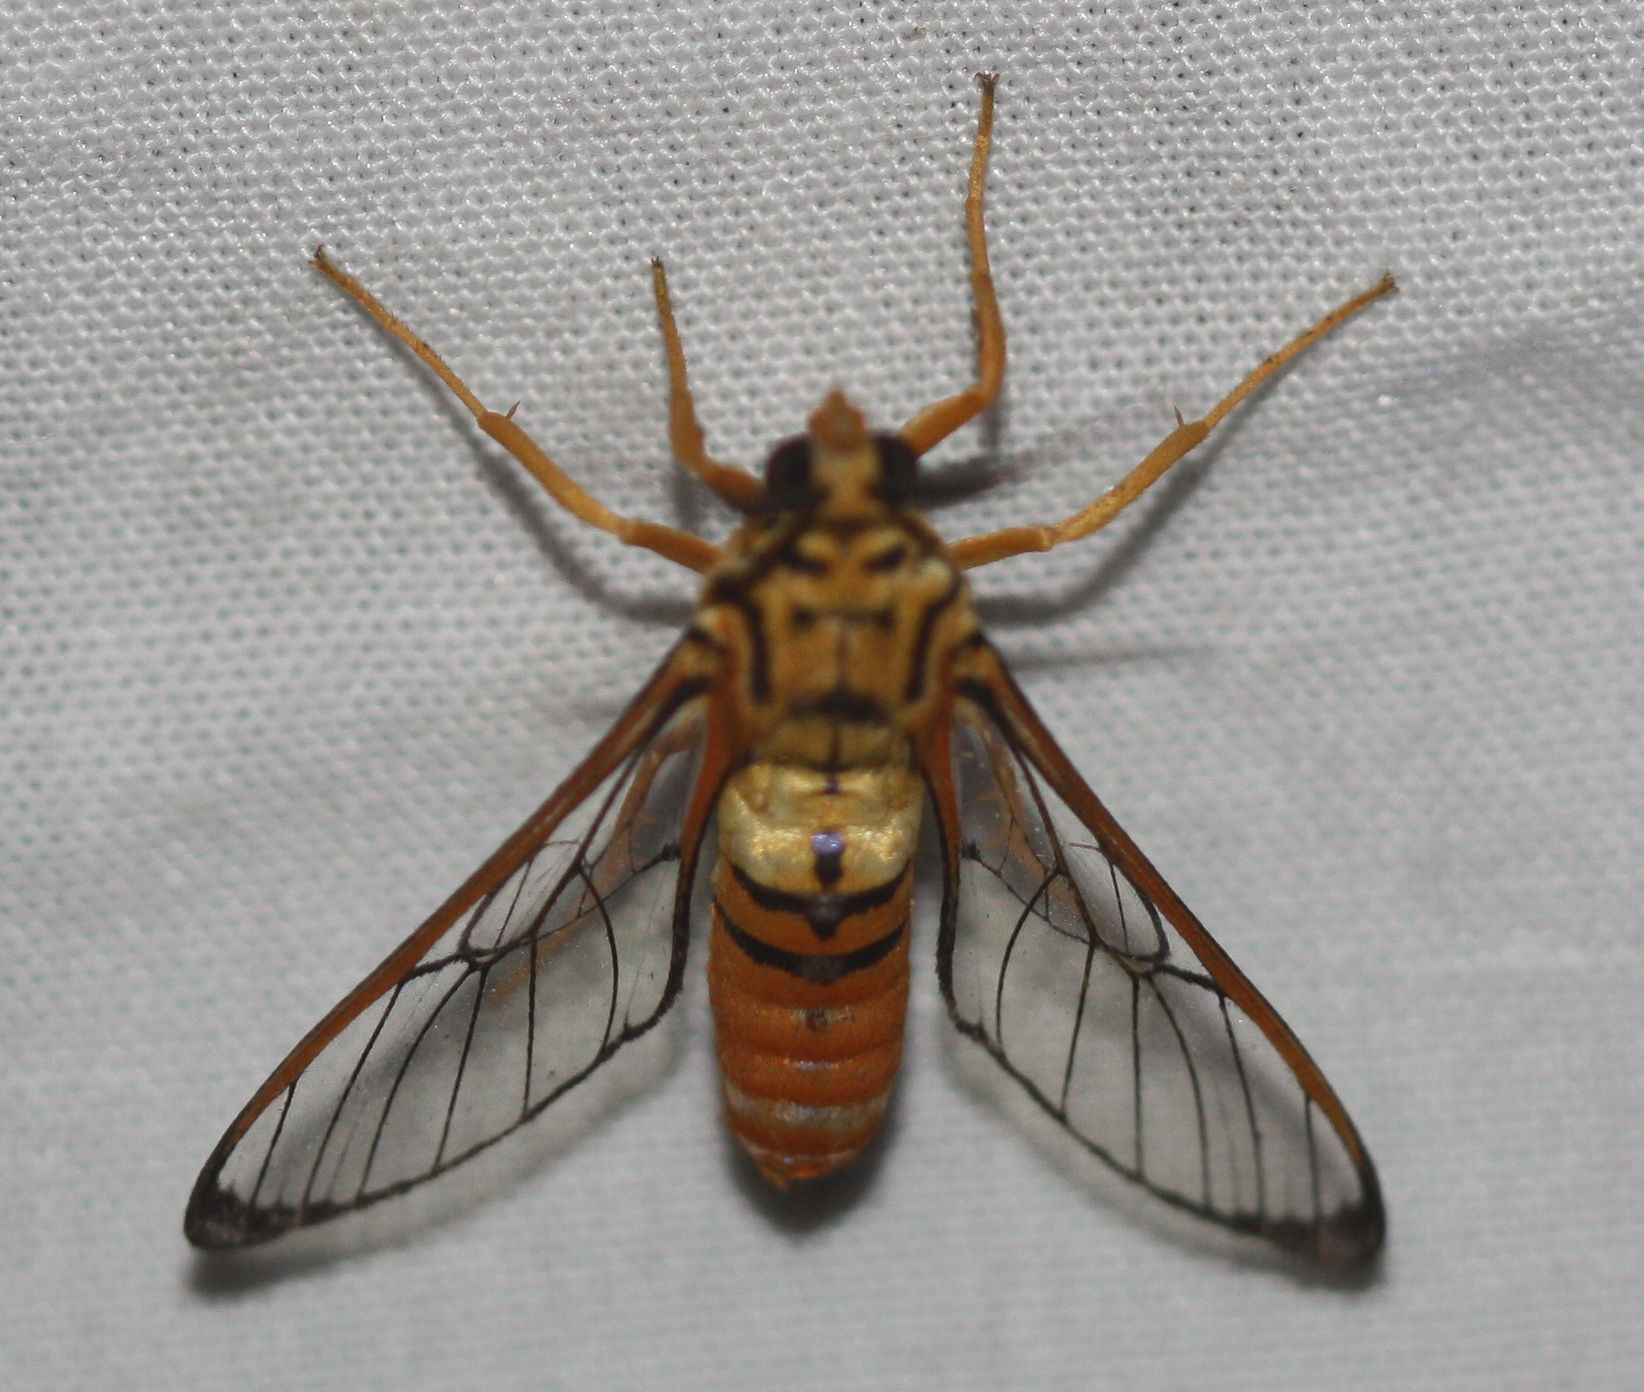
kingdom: Animalia
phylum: Arthropoda
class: Insecta
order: Lepidoptera
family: Erebidae
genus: Abrochia
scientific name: Abrochia fulvisphex
